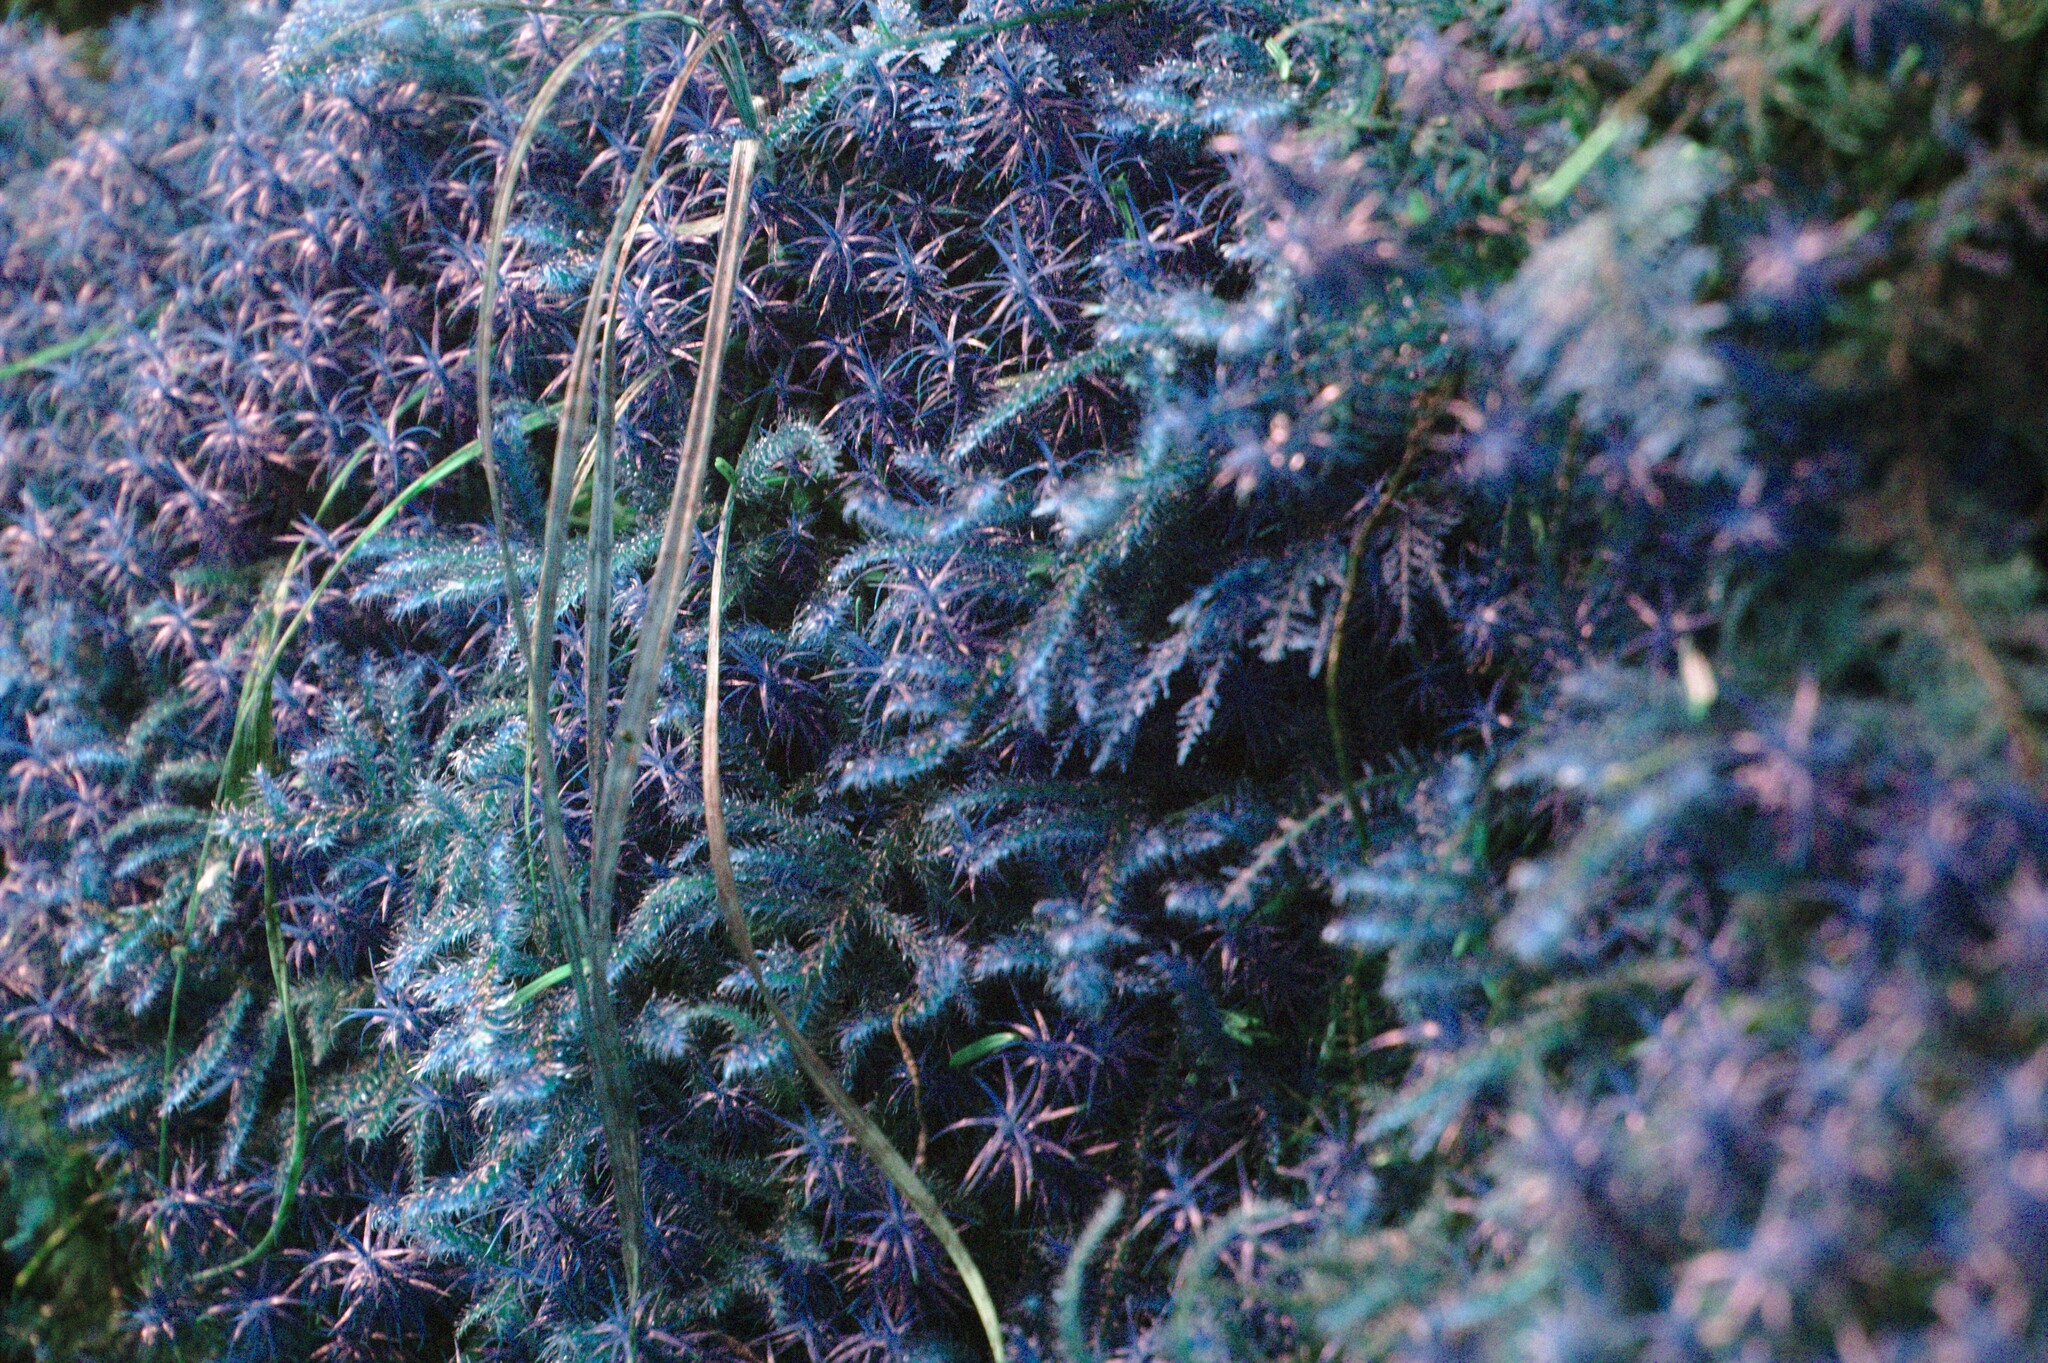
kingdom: Plantae
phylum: Bryophyta
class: Bryopsida
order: Hypnales
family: Hylocomiaceae
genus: Rhytidiadelphus
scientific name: Rhytidiadelphus loreus
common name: Lanky moss
